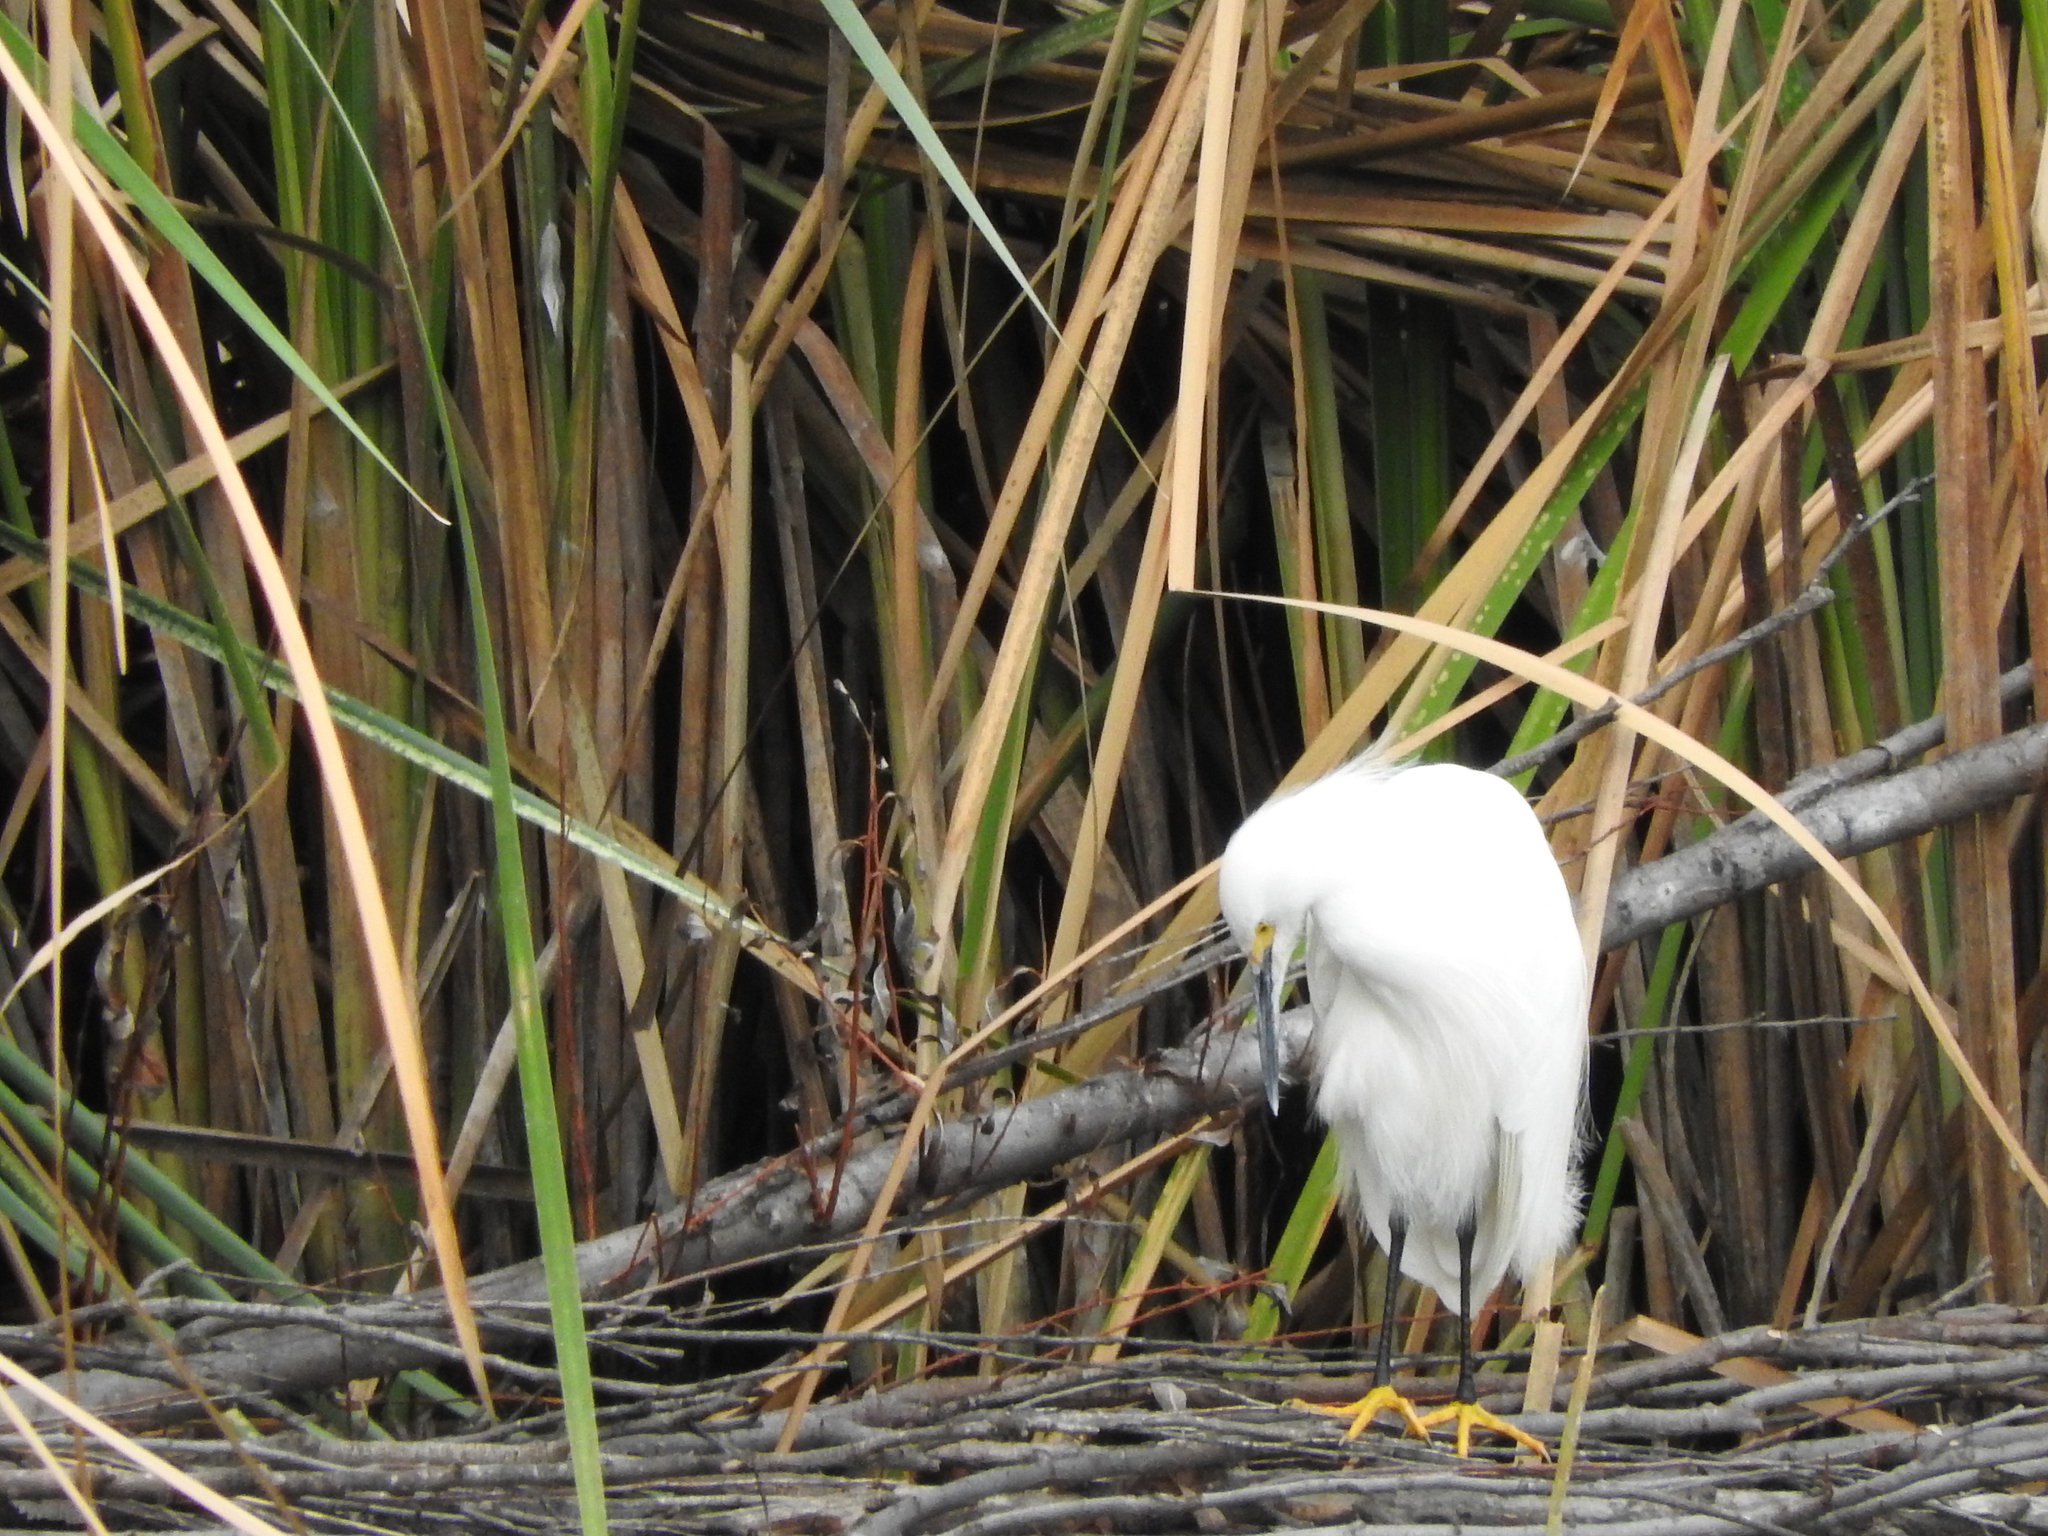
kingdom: Animalia
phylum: Chordata
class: Aves
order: Pelecaniformes
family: Ardeidae
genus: Egretta
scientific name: Egretta thula
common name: Snowy egret
